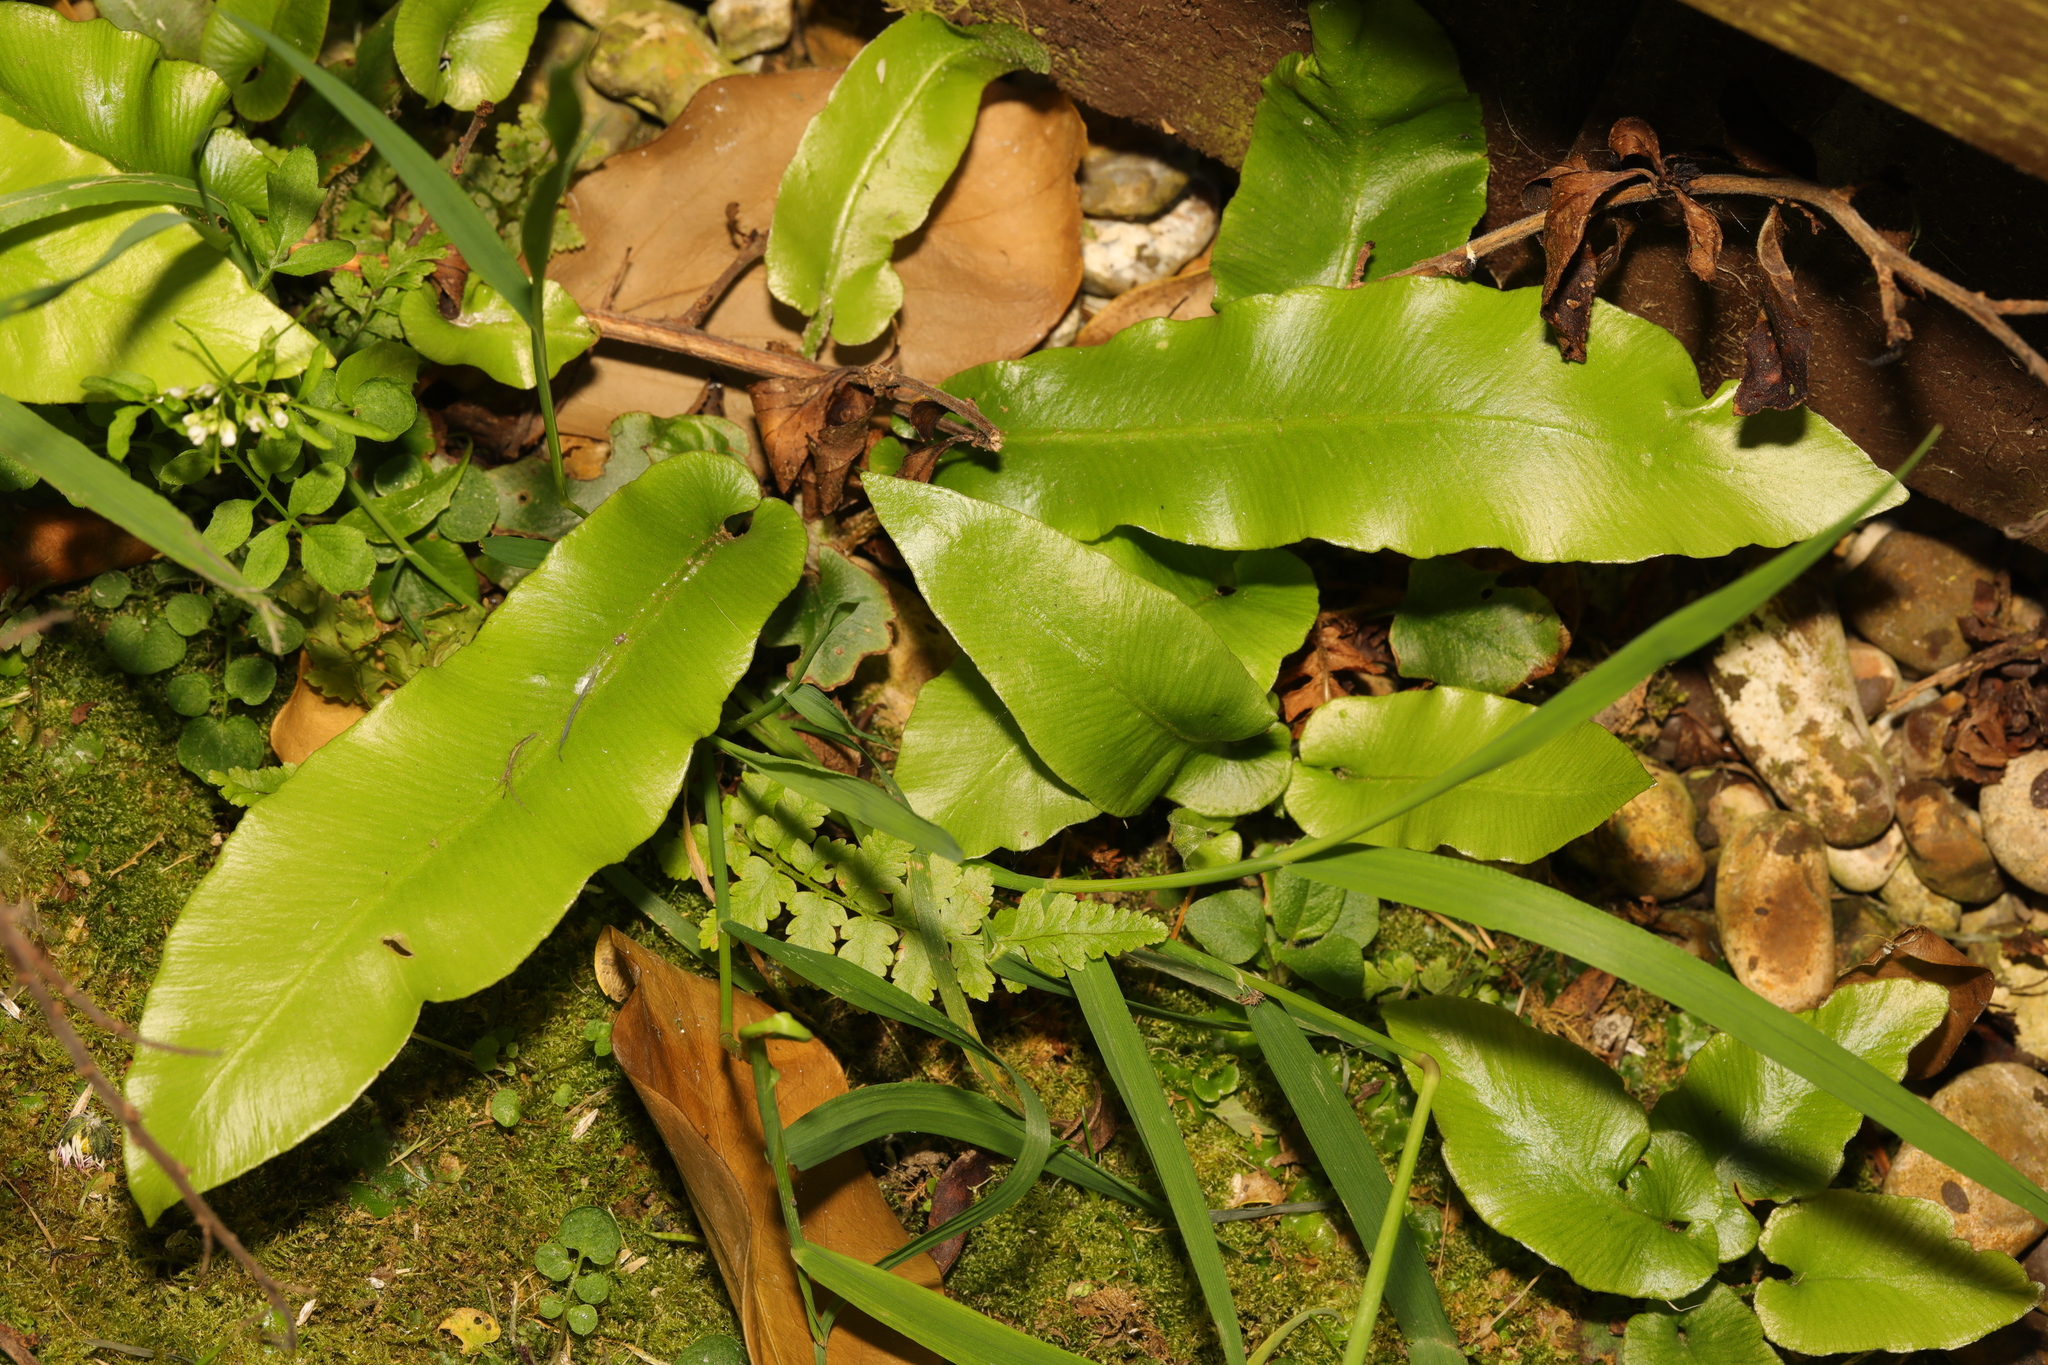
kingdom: Plantae
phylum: Tracheophyta
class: Polypodiopsida
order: Polypodiales
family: Aspleniaceae
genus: Asplenium
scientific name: Asplenium scolopendrium
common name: Hart's-tongue fern
